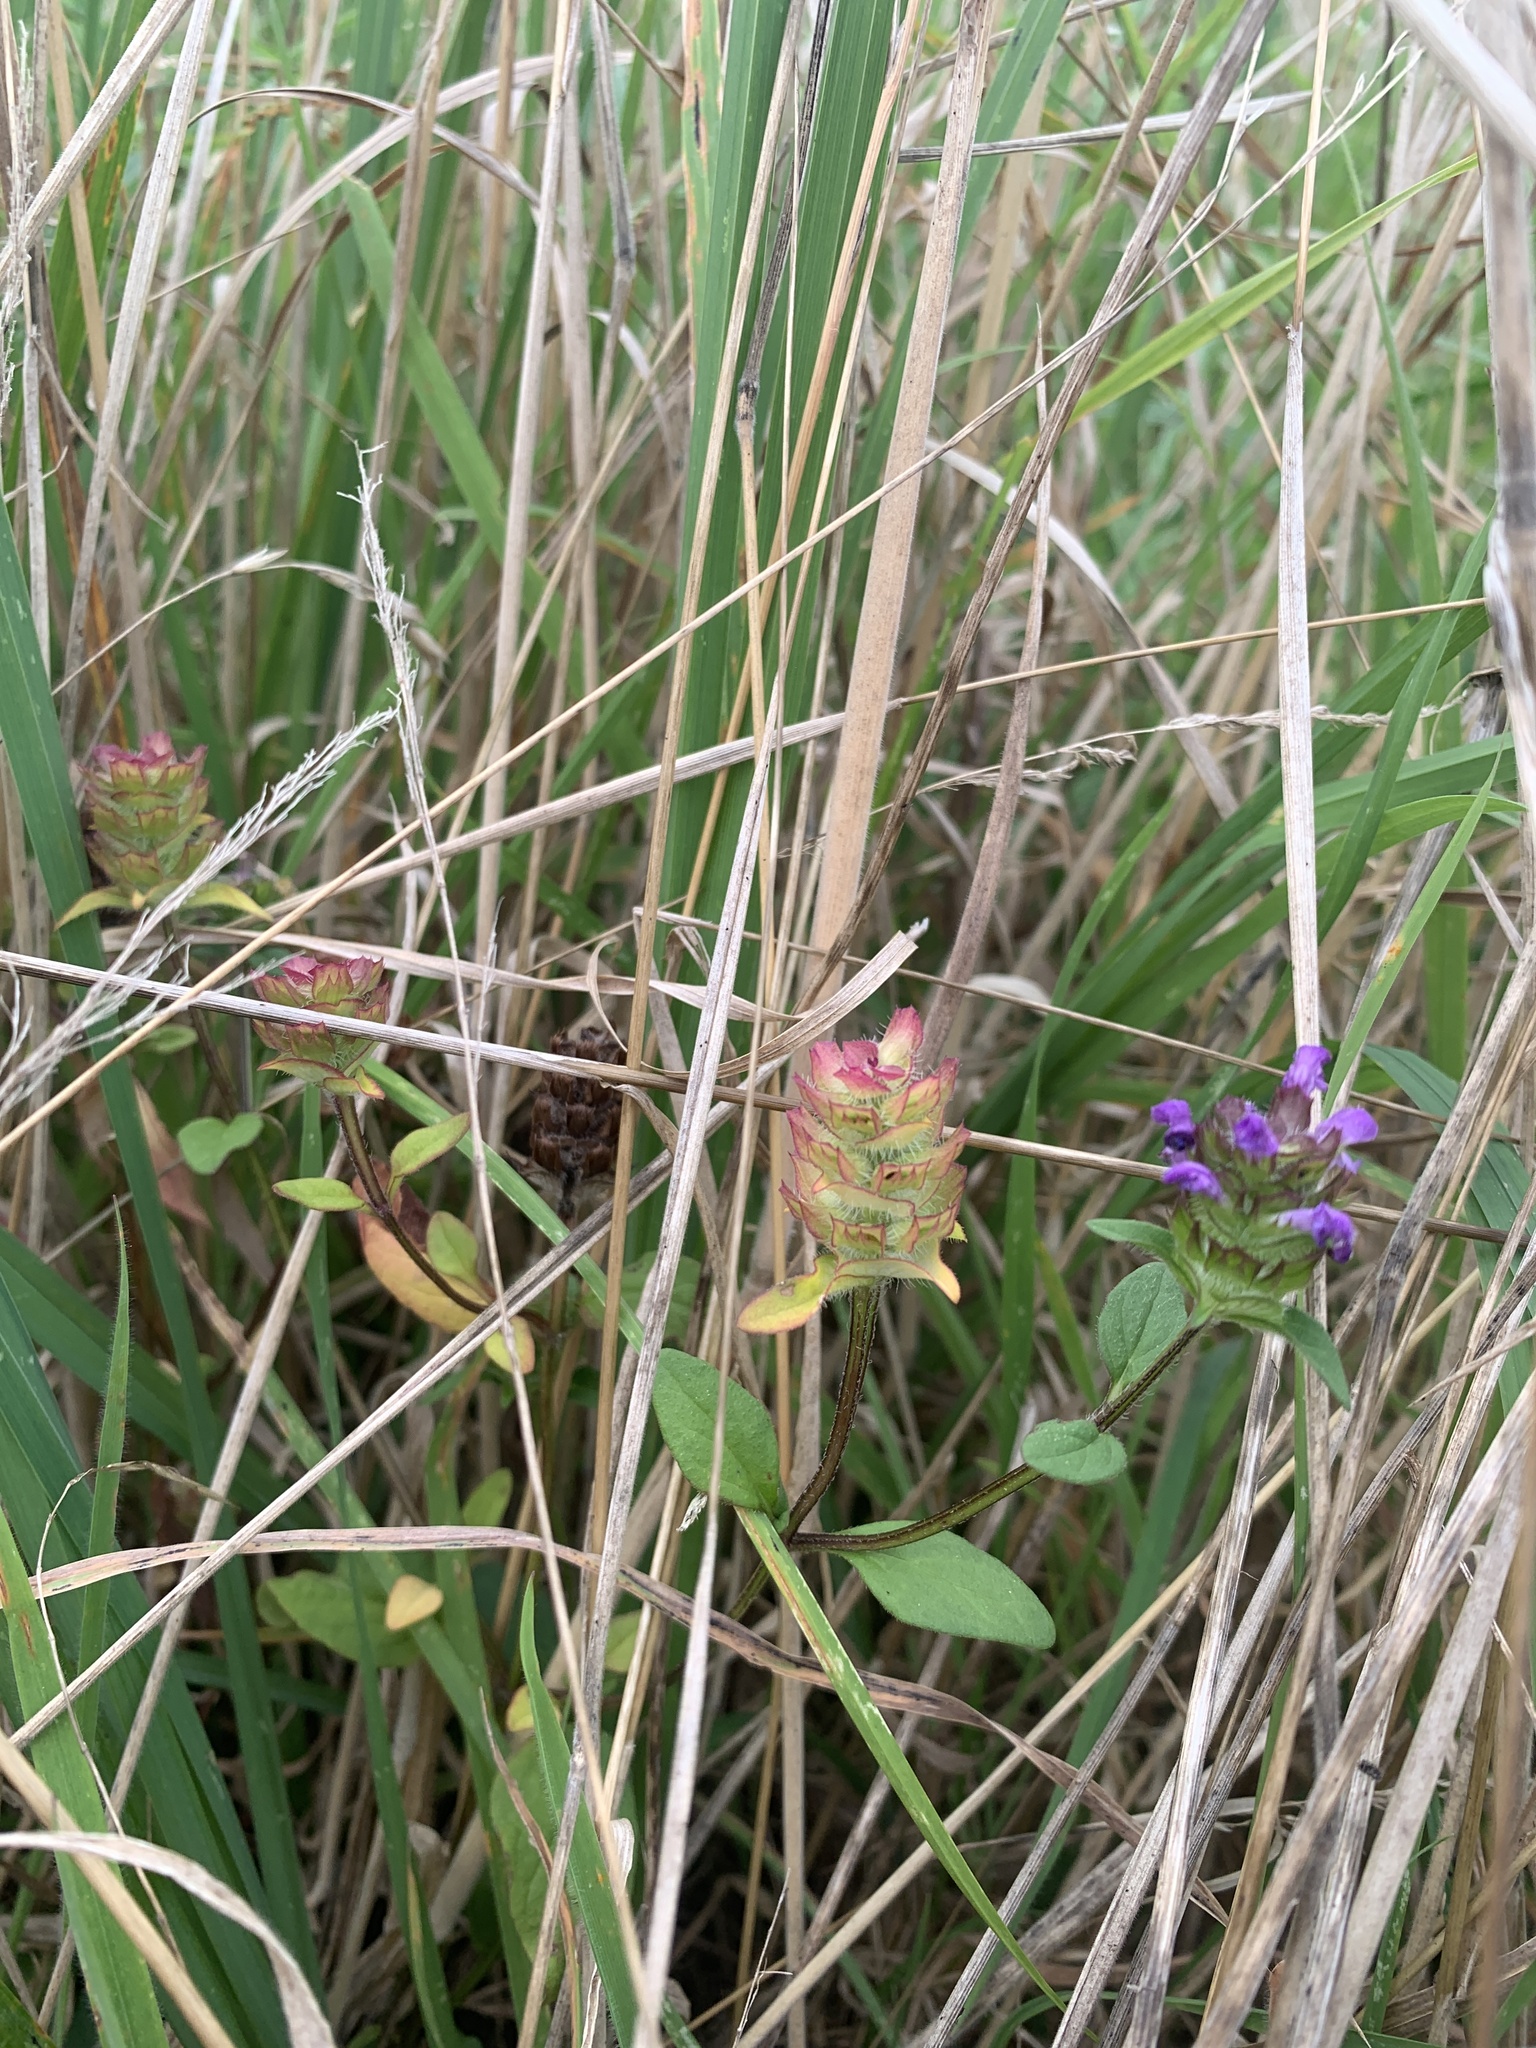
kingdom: Plantae
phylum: Tracheophyta
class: Magnoliopsida
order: Lamiales
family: Lamiaceae
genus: Prunella
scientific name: Prunella vulgaris
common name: Heal-all
